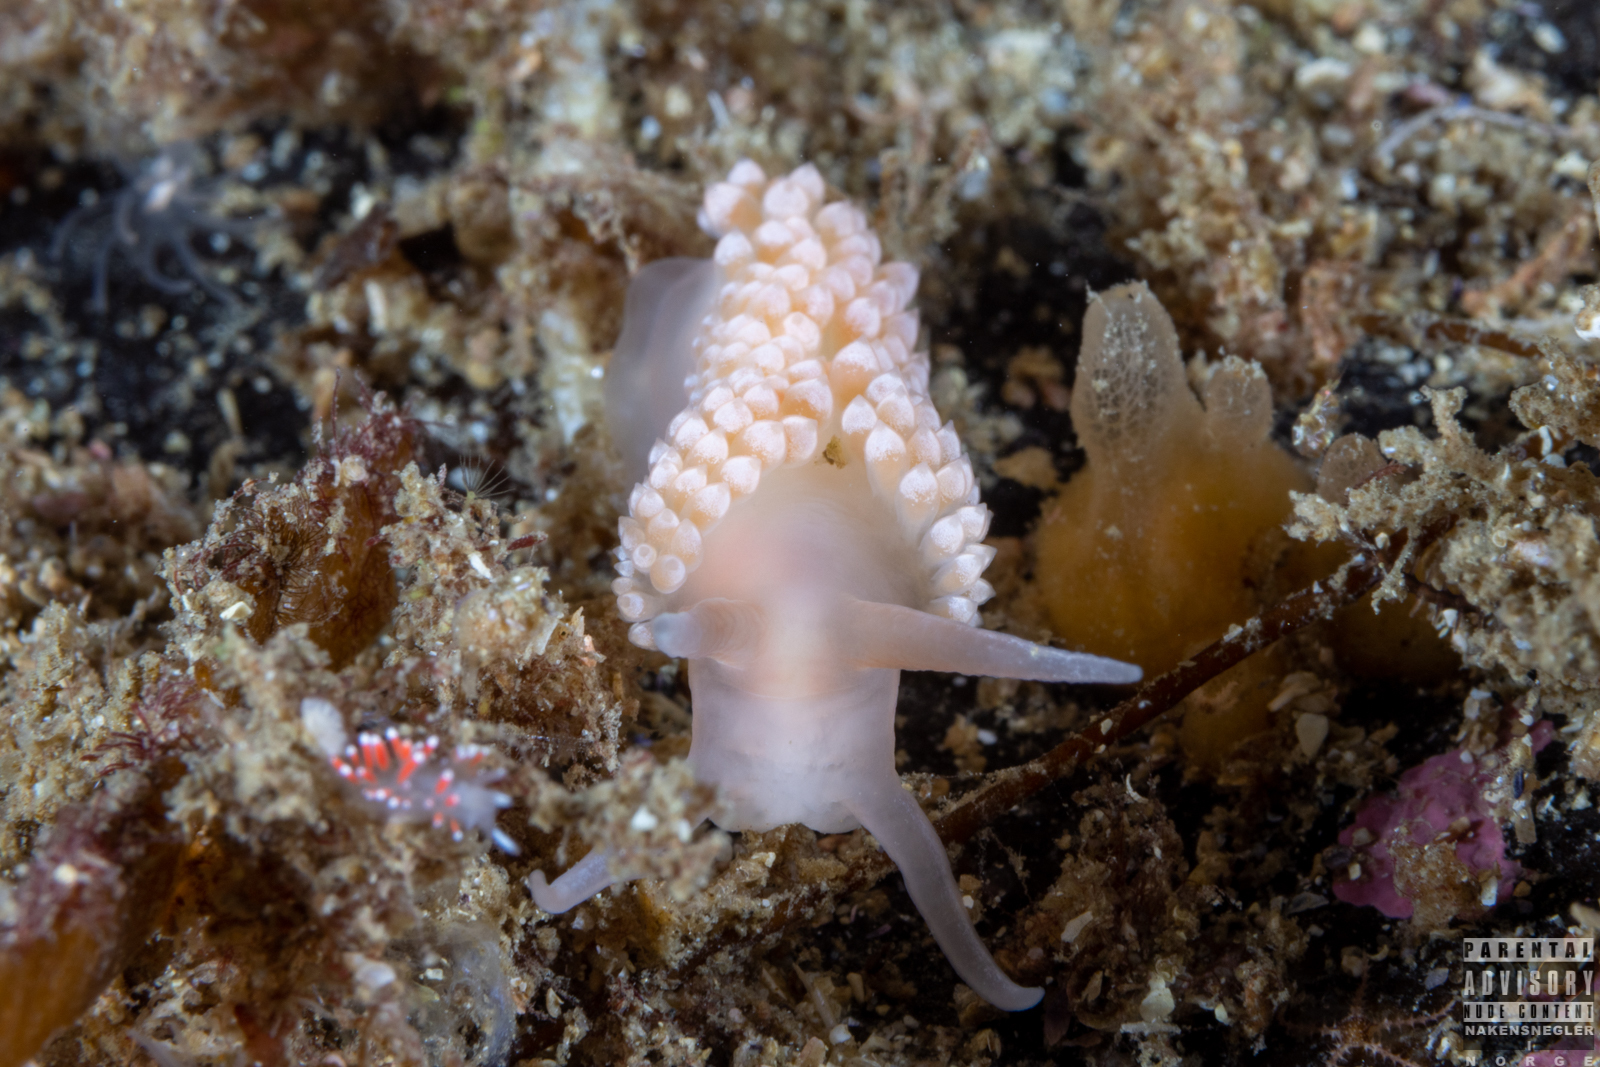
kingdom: Animalia
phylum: Mollusca
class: Gastropoda
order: Nudibranchia
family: Coryphellidae
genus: Coryphella
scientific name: Coryphella verrucosa
